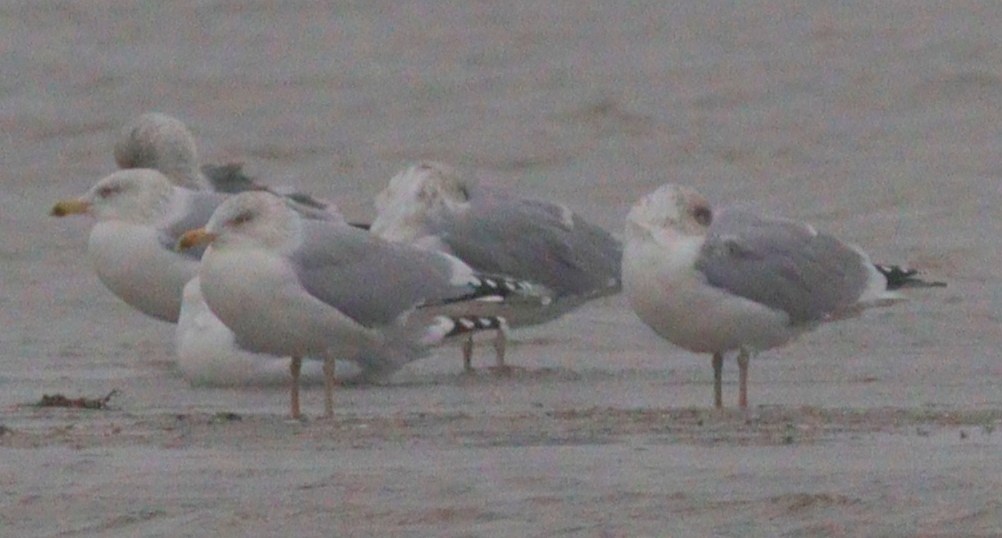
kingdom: Animalia
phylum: Chordata
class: Aves
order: Charadriiformes
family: Laridae
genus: Larus
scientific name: Larus argentatus
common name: Herring gull
